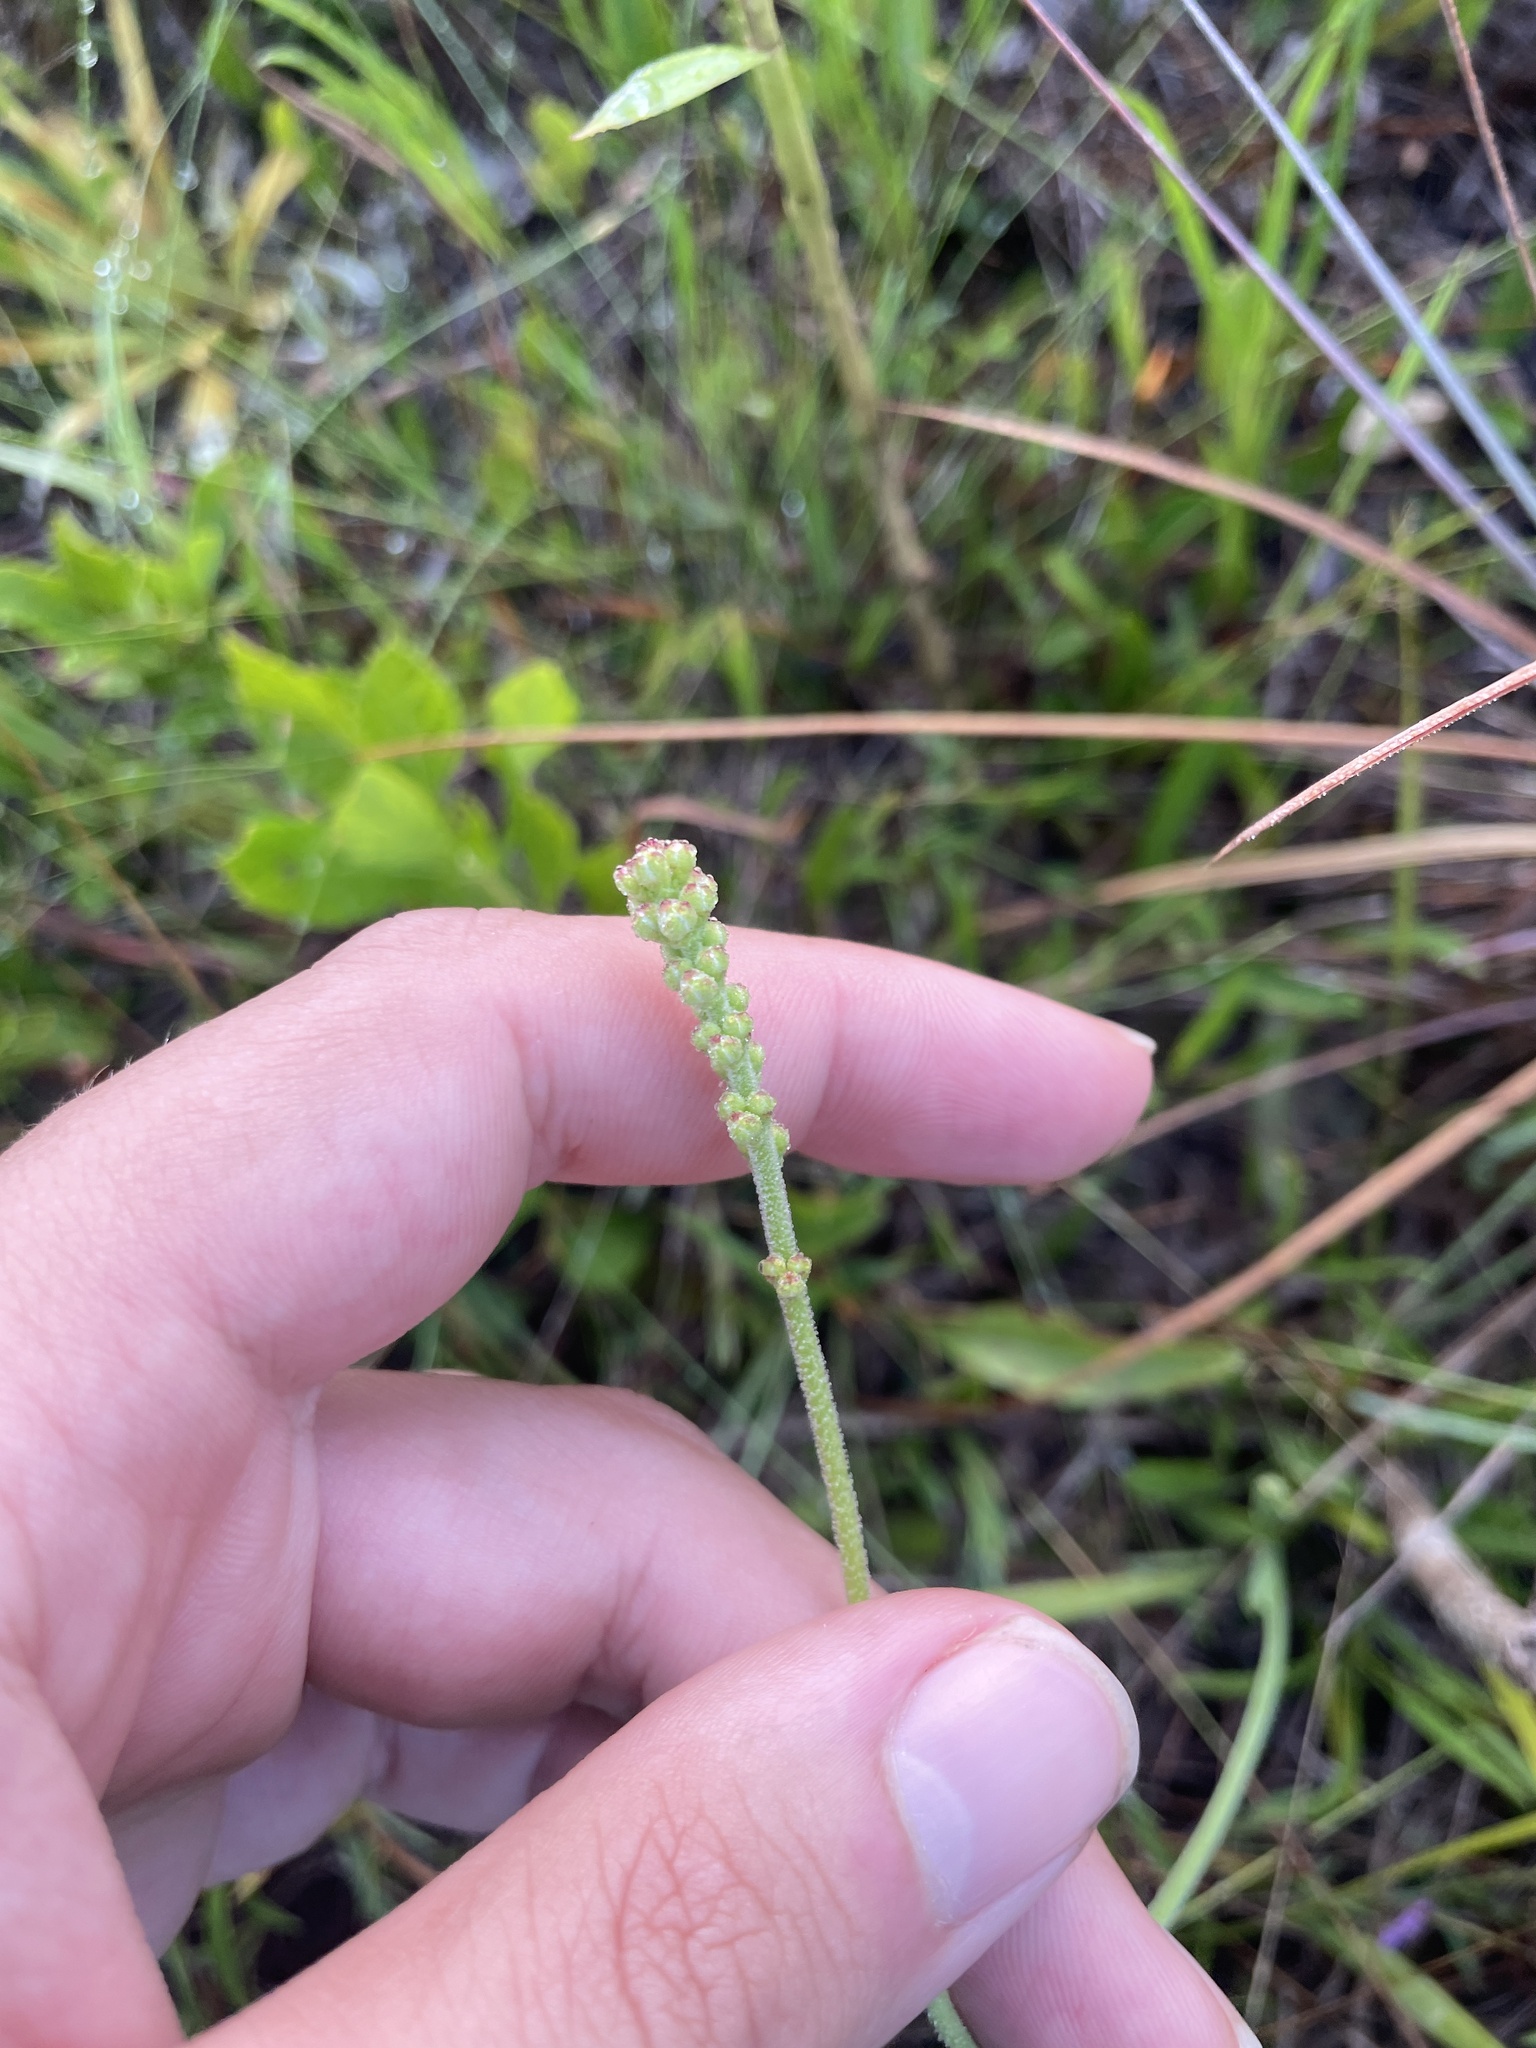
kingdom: Plantae
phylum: Tracheophyta
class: Liliopsida
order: Alismatales
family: Tofieldiaceae
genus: Triantha
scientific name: Triantha racemosa
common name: Coastal false asphodel
